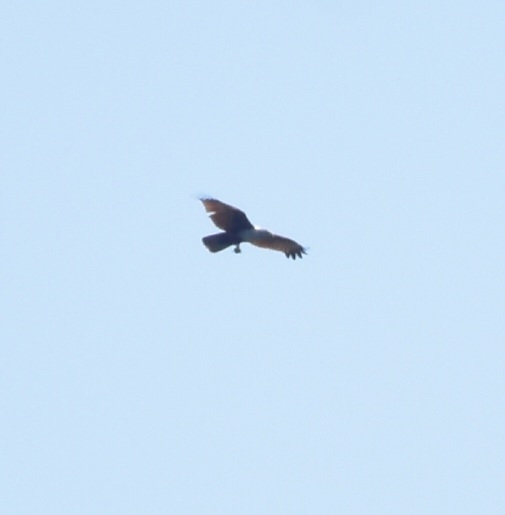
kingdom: Animalia
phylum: Chordata
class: Aves
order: Accipitriformes
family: Accipitridae
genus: Haliastur
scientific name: Haliastur indus
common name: Brahminy kite
